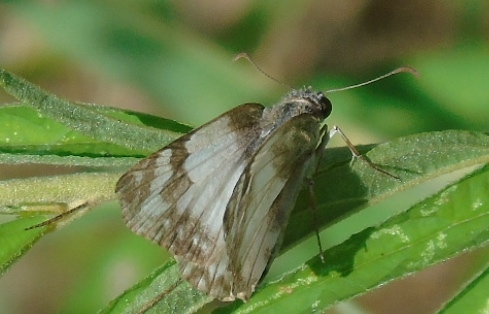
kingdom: Animalia
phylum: Arthropoda
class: Insecta
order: Lepidoptera
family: Hesperiidae
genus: Heliopetes
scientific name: Heliopetes laviana
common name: Laviana white-skipper
